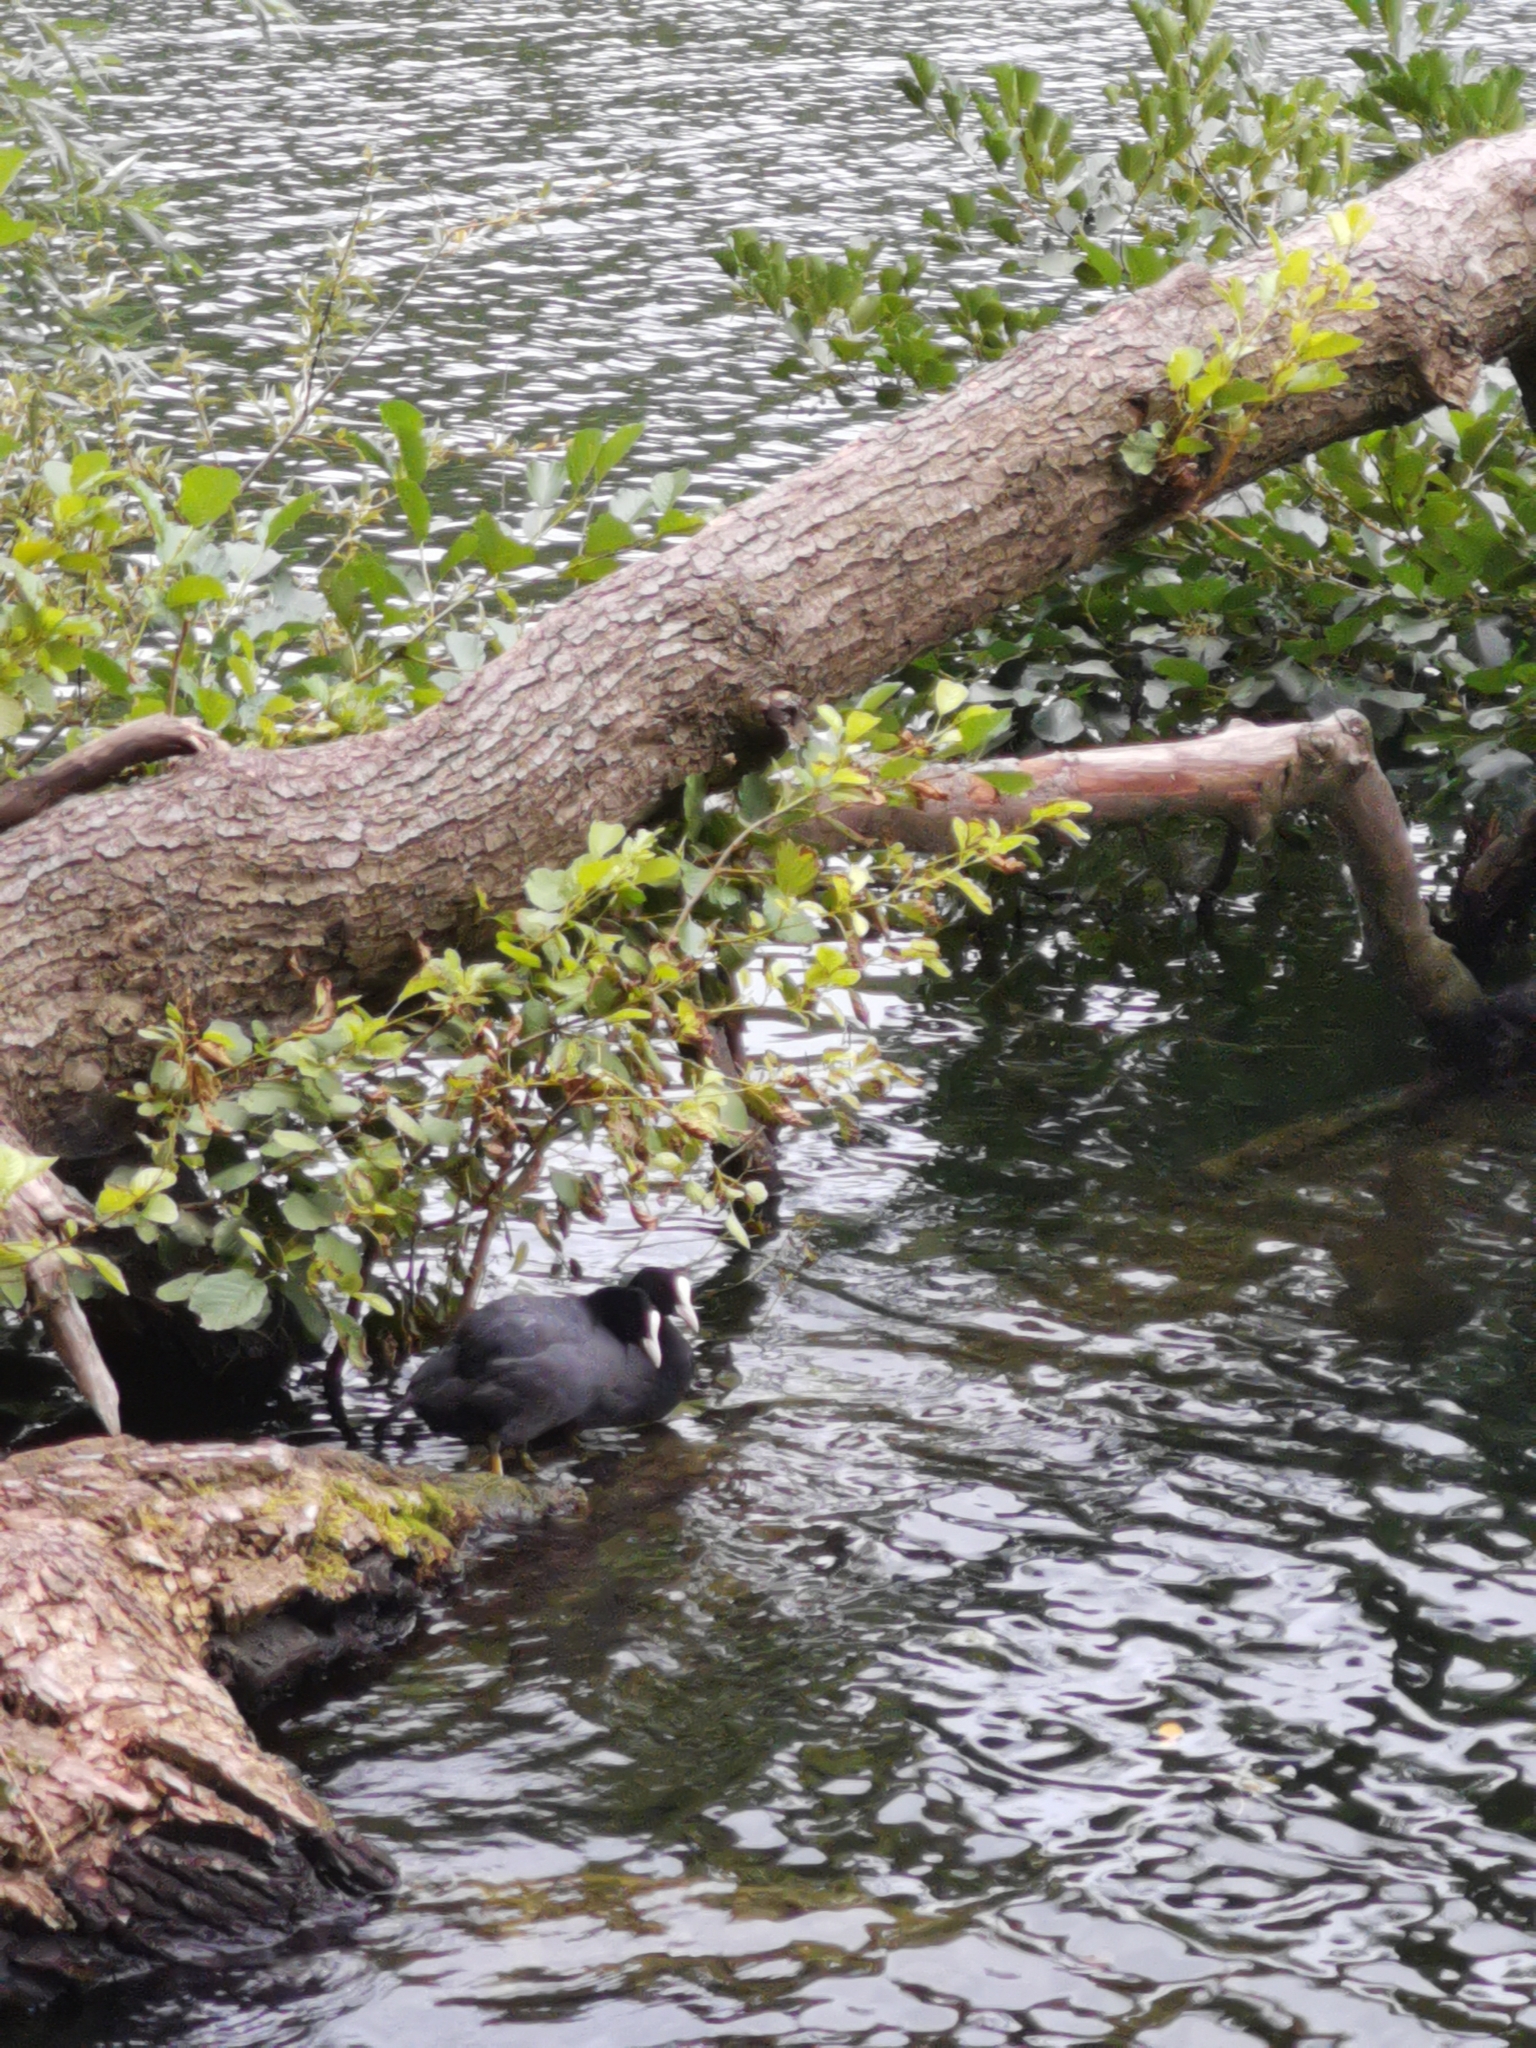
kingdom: Animalia
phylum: Chordata
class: Aves
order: Gruiformes
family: Rallidae
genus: Fulica
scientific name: Fulica atra
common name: Eurasian coot
